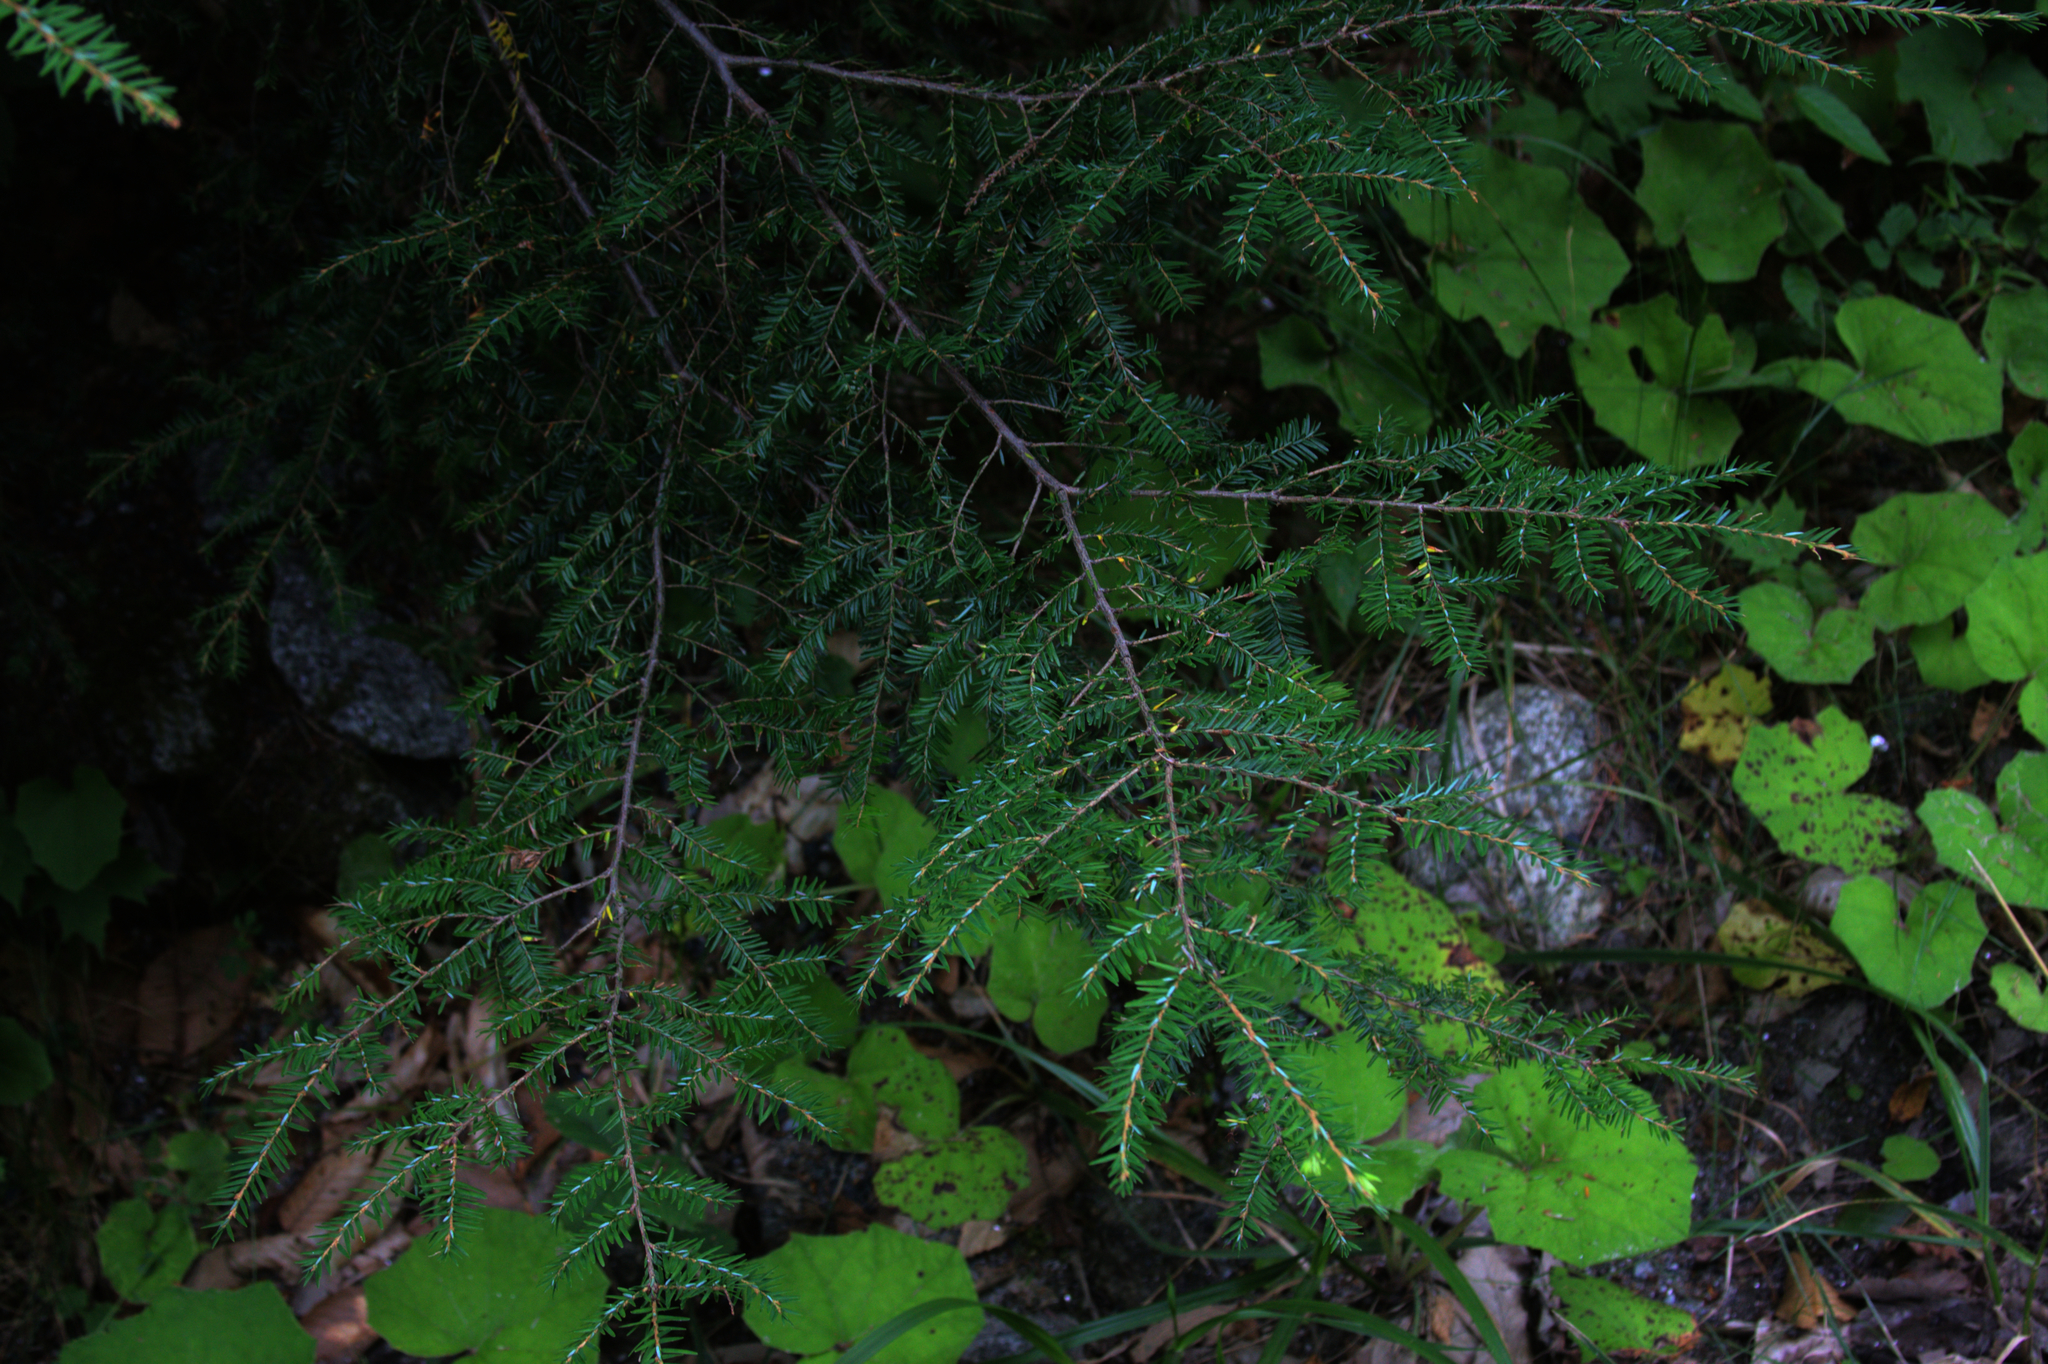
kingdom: Plantae
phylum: Tracheophyta
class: Pinopsida
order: Pinales
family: Pinaceae
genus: Tsuga
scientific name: Tsuga canadensis
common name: Eastern hemlock
